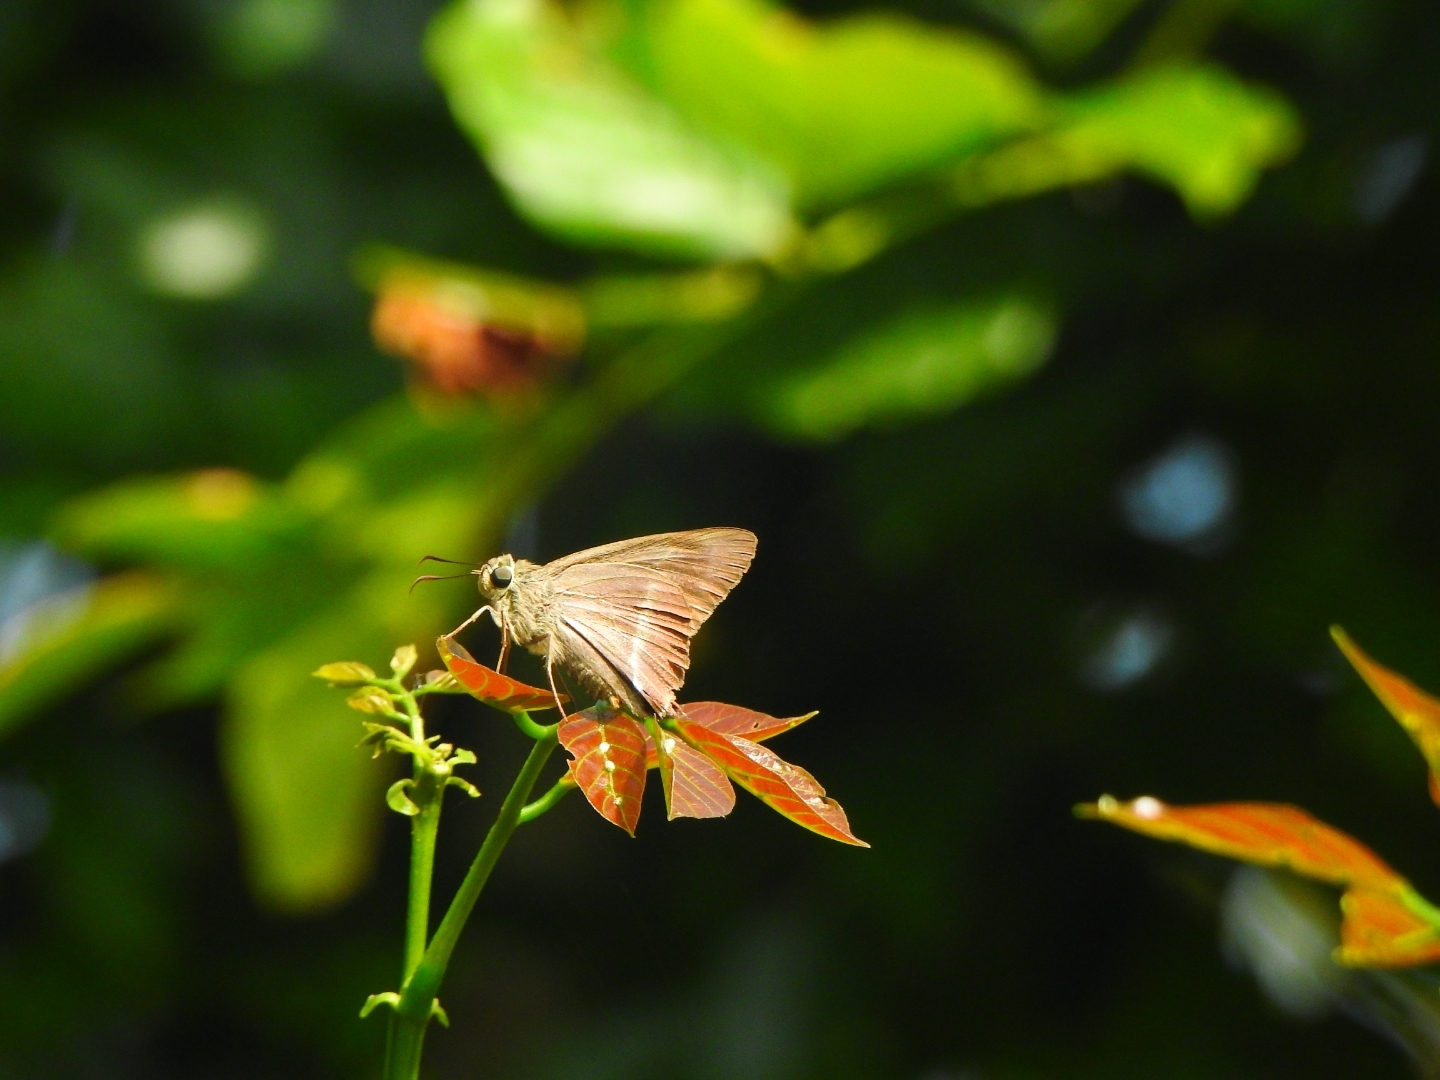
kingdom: Animalia
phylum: Arthropoda
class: Insecta
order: Lepidoptera
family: Hesperiidae
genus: Hasora
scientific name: Hasora chromus
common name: Common banded awl
